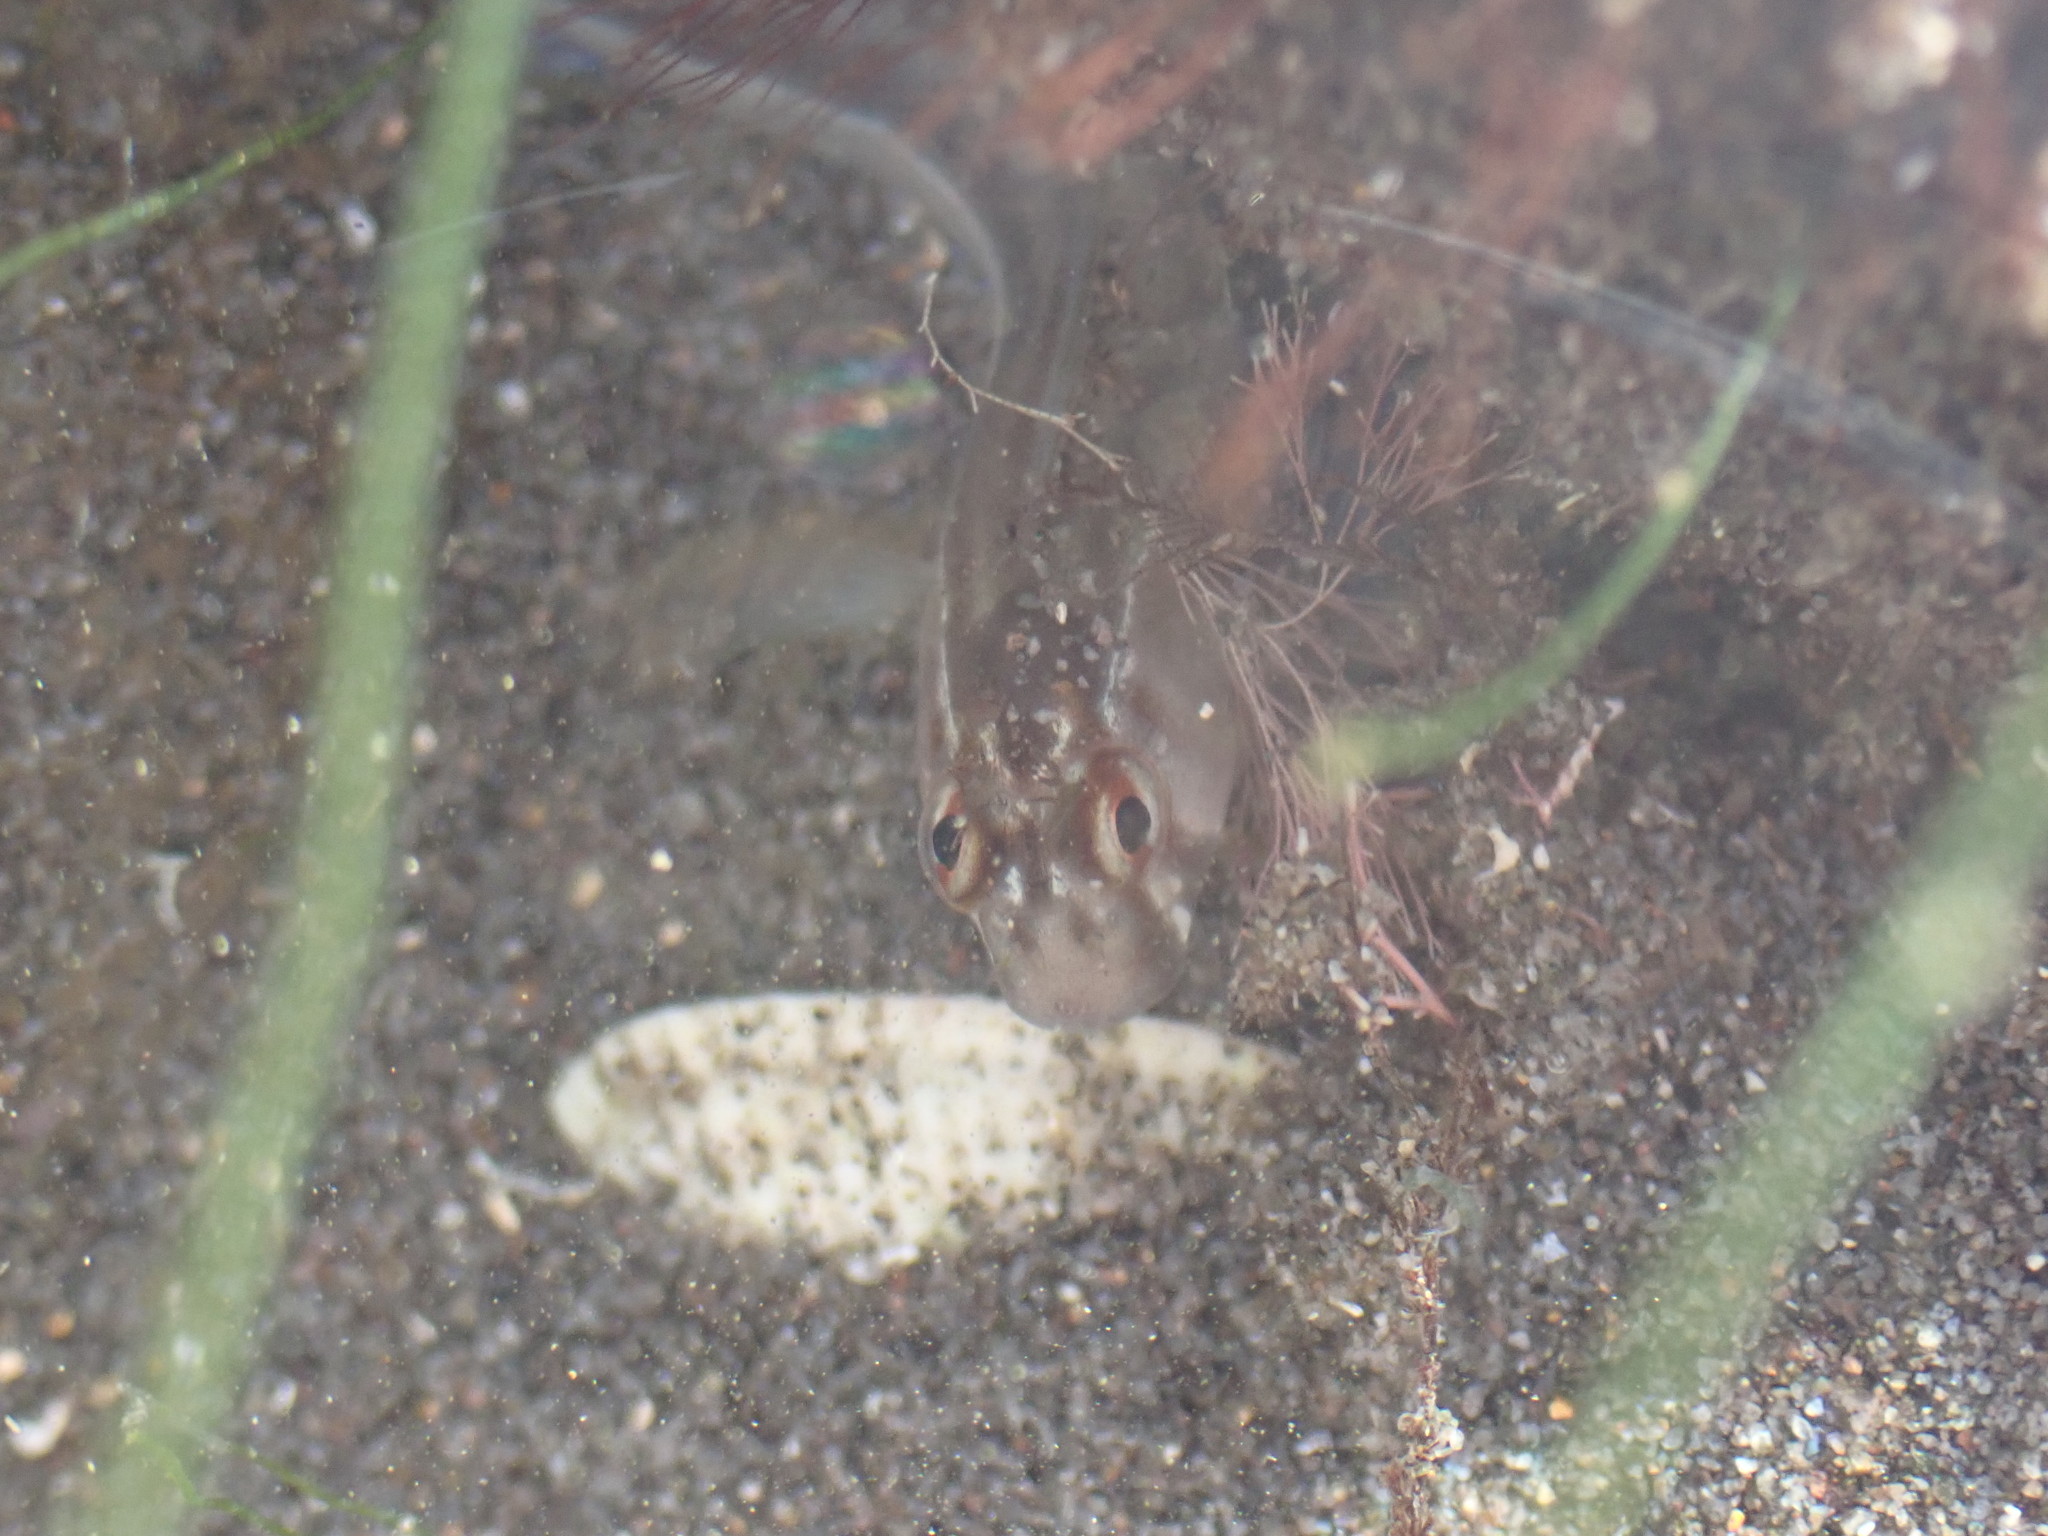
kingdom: Animalia
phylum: Chordata
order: Perciformes
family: Blenniidae
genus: Parablennius
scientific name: Parablennius laticlavius
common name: Crested blenny
